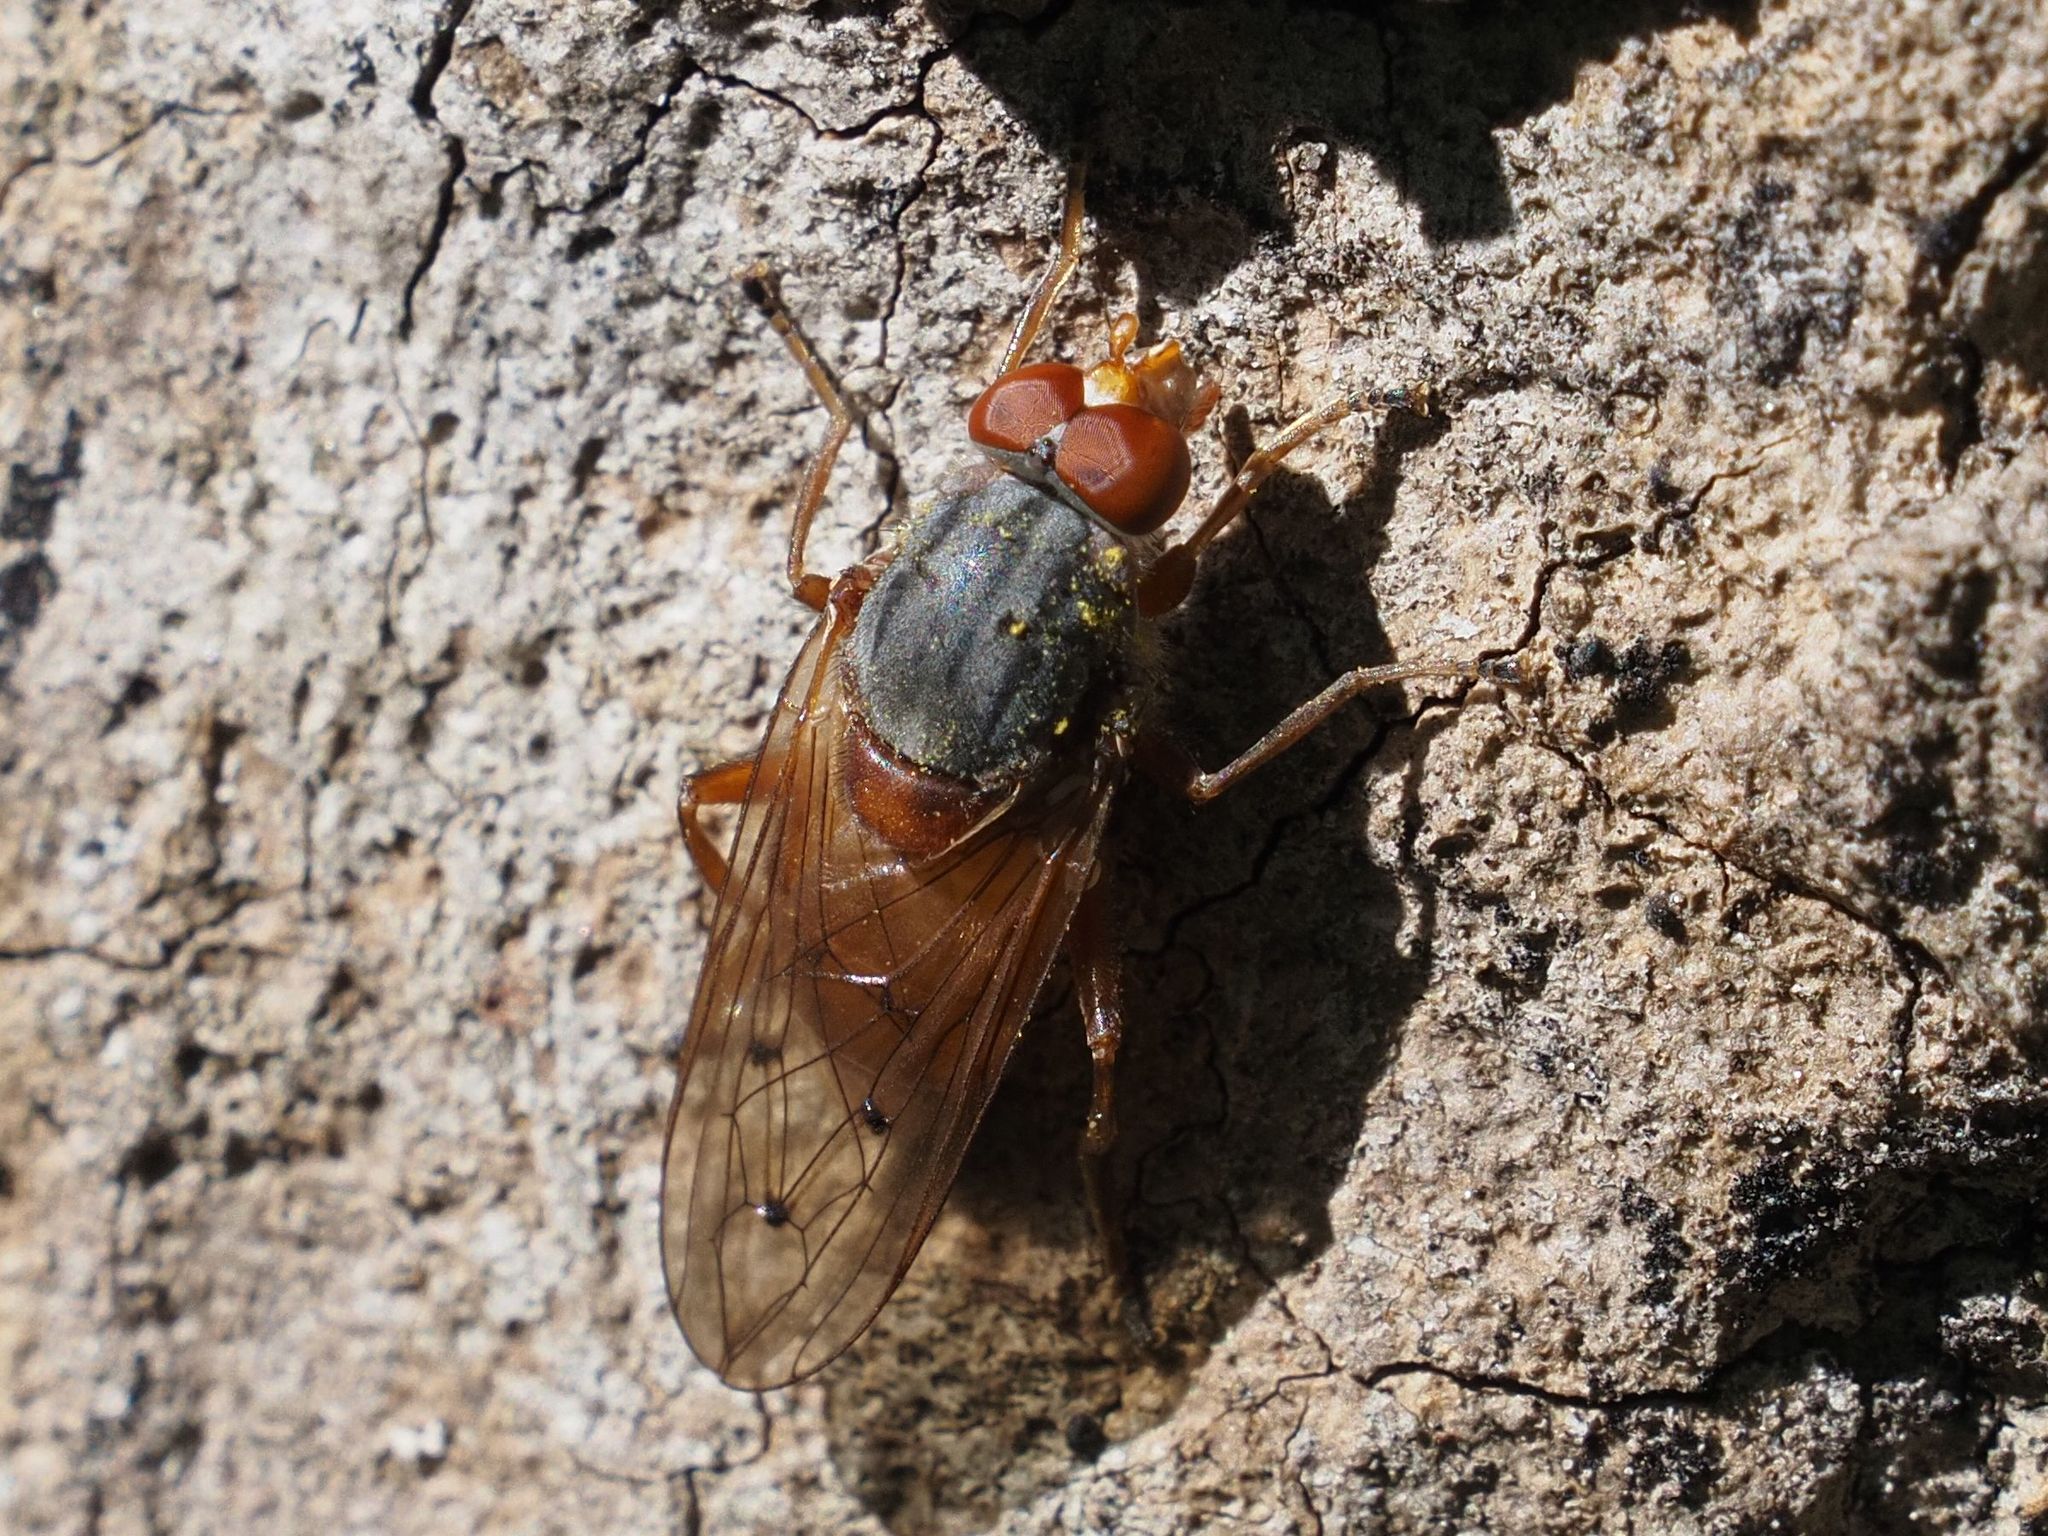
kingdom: Animalia
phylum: Arthropoda
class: Insecta
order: Diptera
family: Syrphidae
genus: Brachyopa
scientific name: Brachyopa maculipennis
